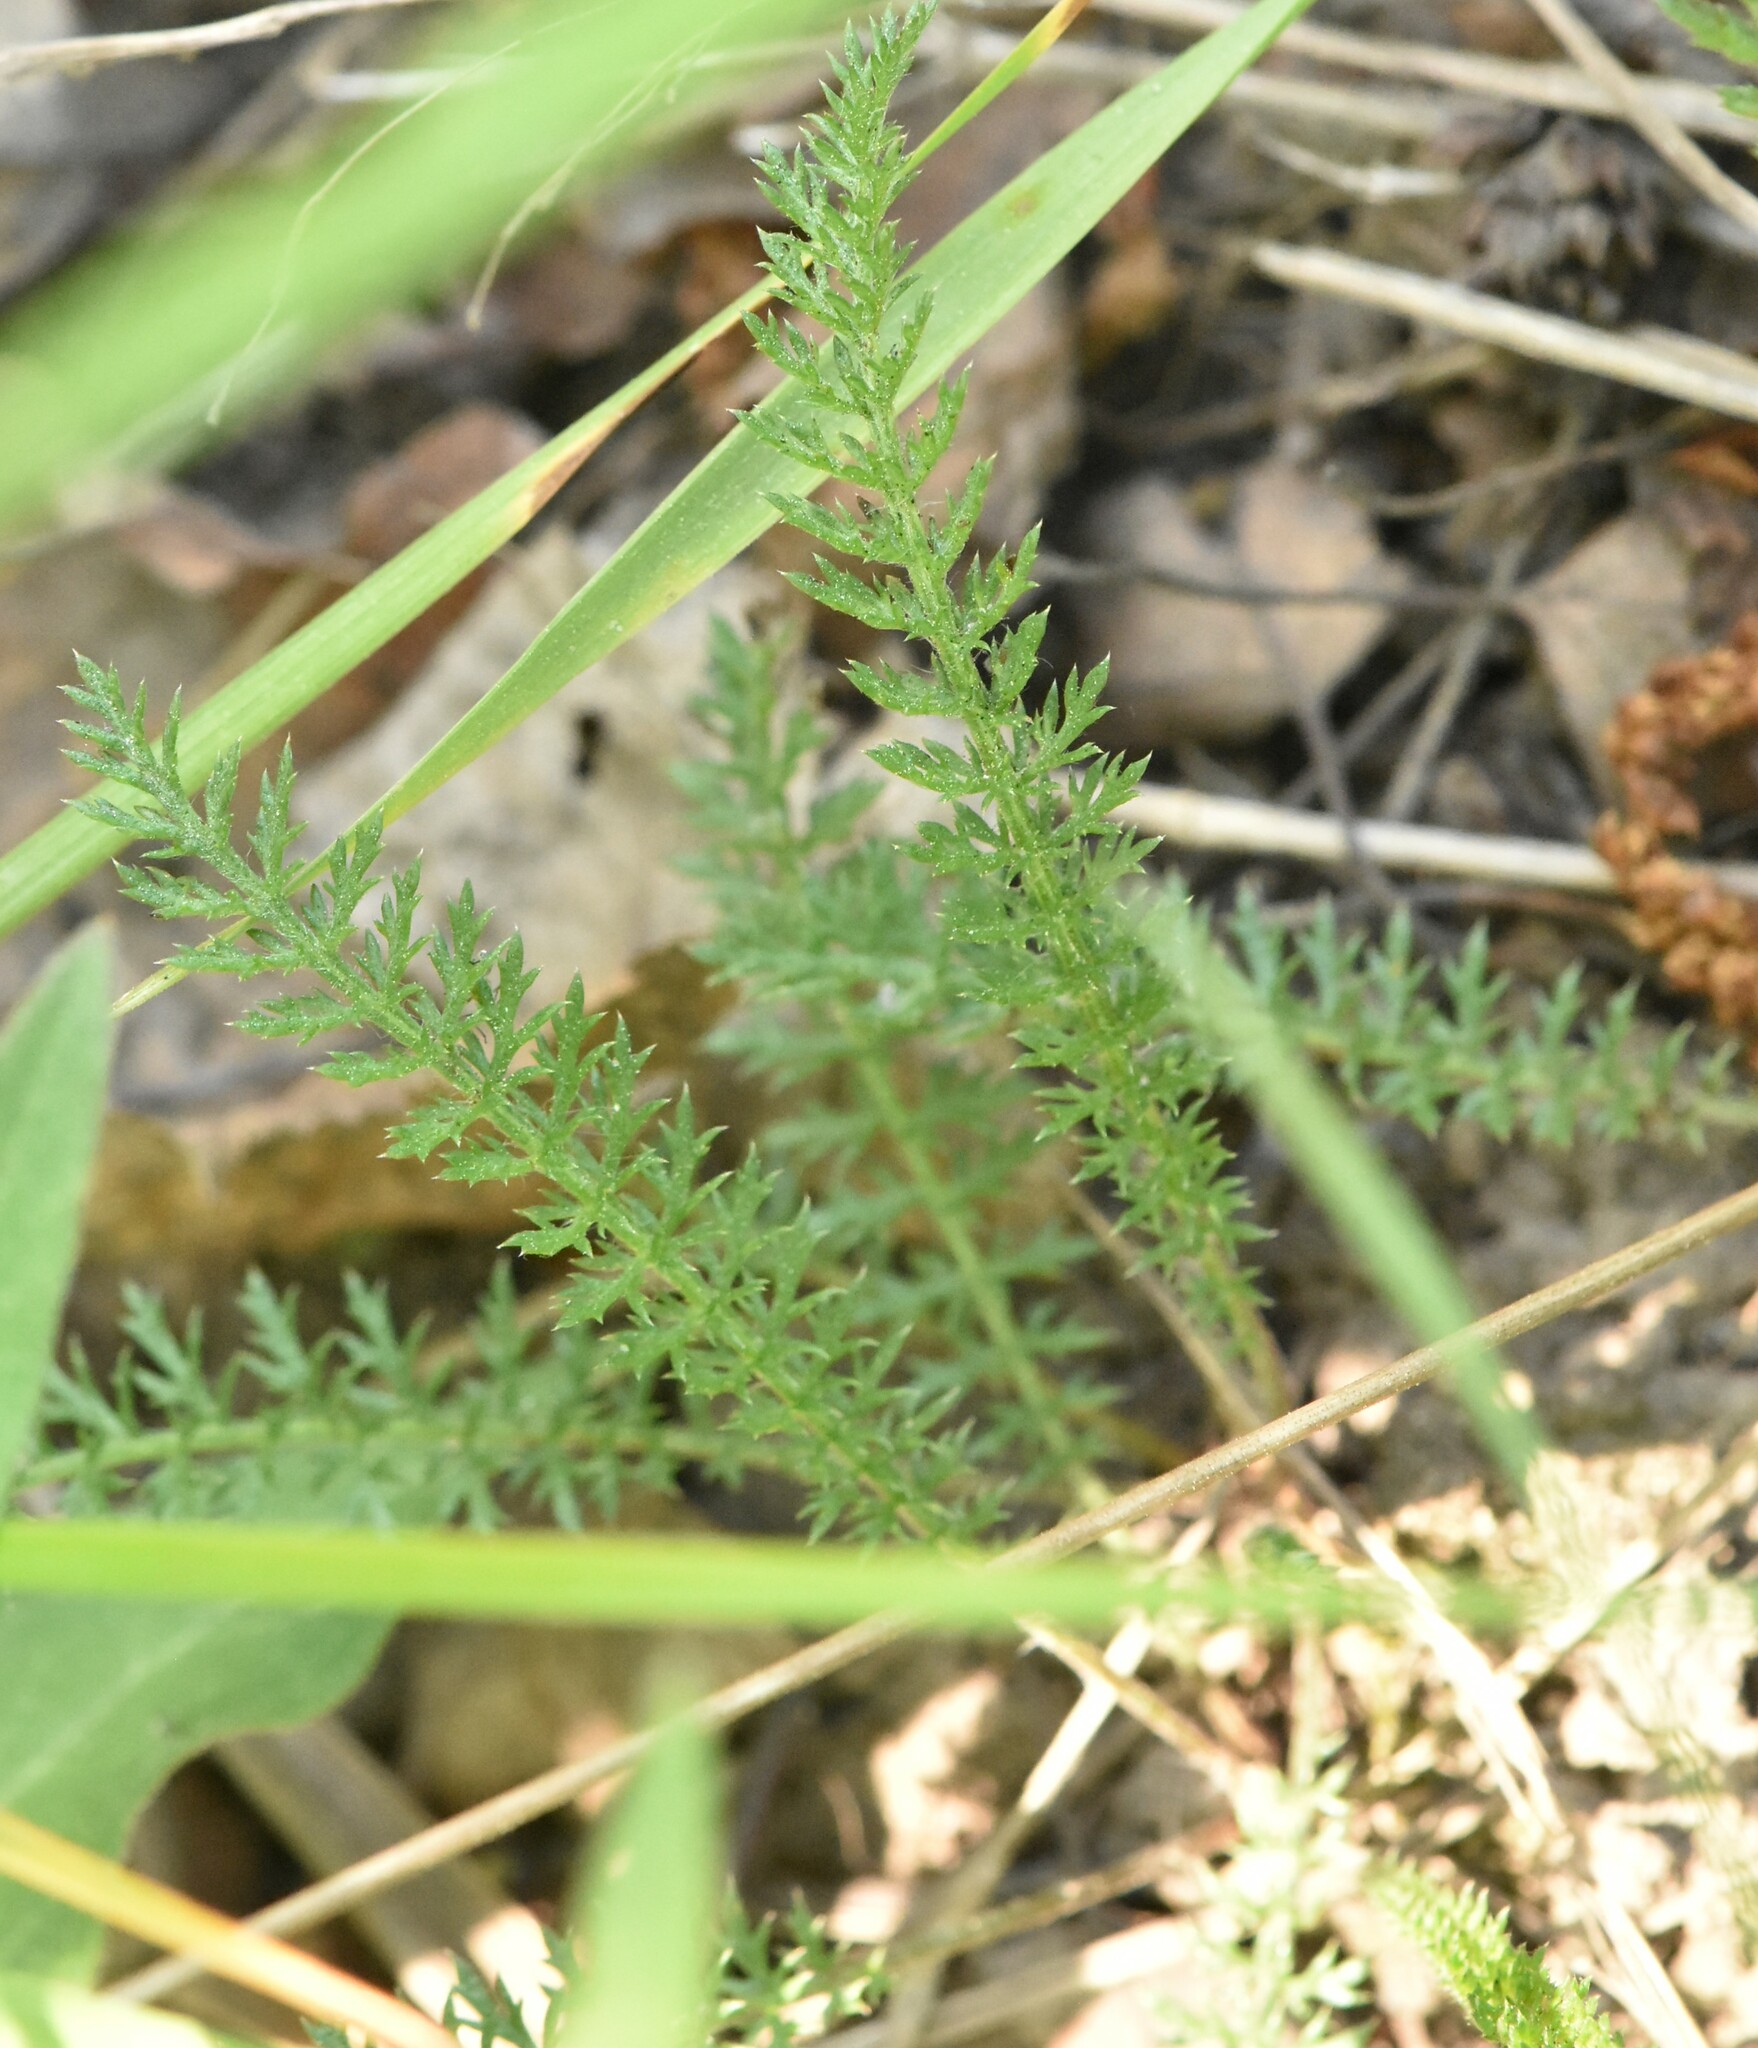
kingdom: Plantae
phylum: Tracheophyta
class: Magnoliopsida
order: Asterales
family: Asteraceae
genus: Achillea
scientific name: Achillea millefolium
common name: Yarrow
